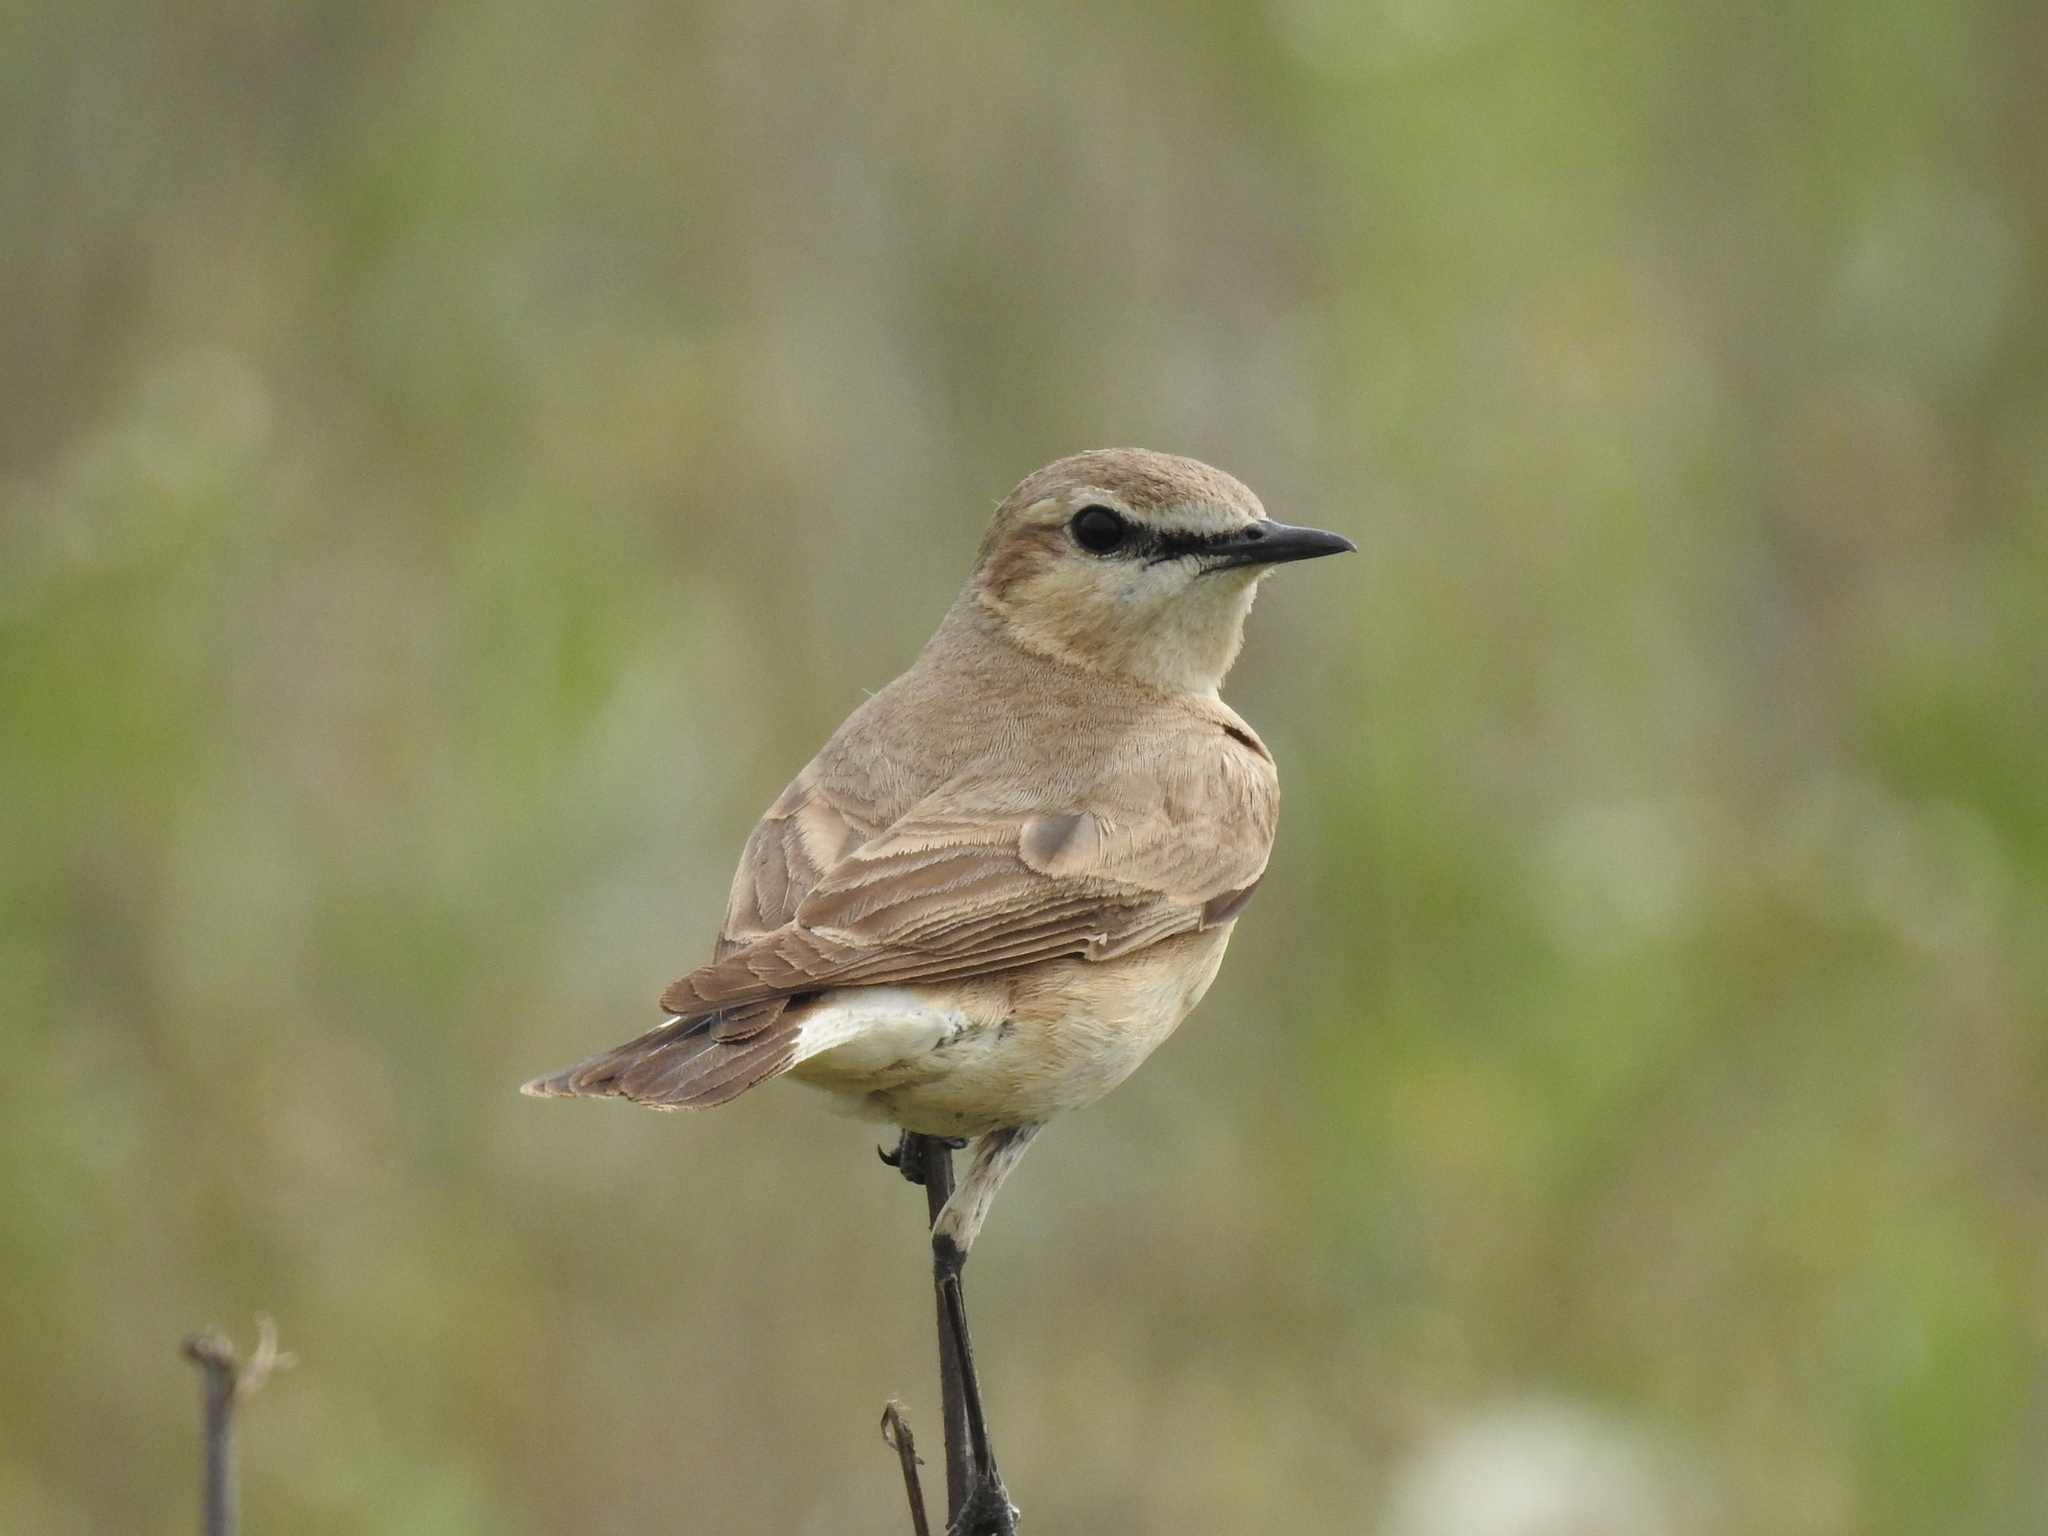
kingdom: Animalia
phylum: Chordata
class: Aves
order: Passeriformes
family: Muscicapidae
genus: Oenanthe
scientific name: Oenanthe isabellina
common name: Isabelline wheatear
